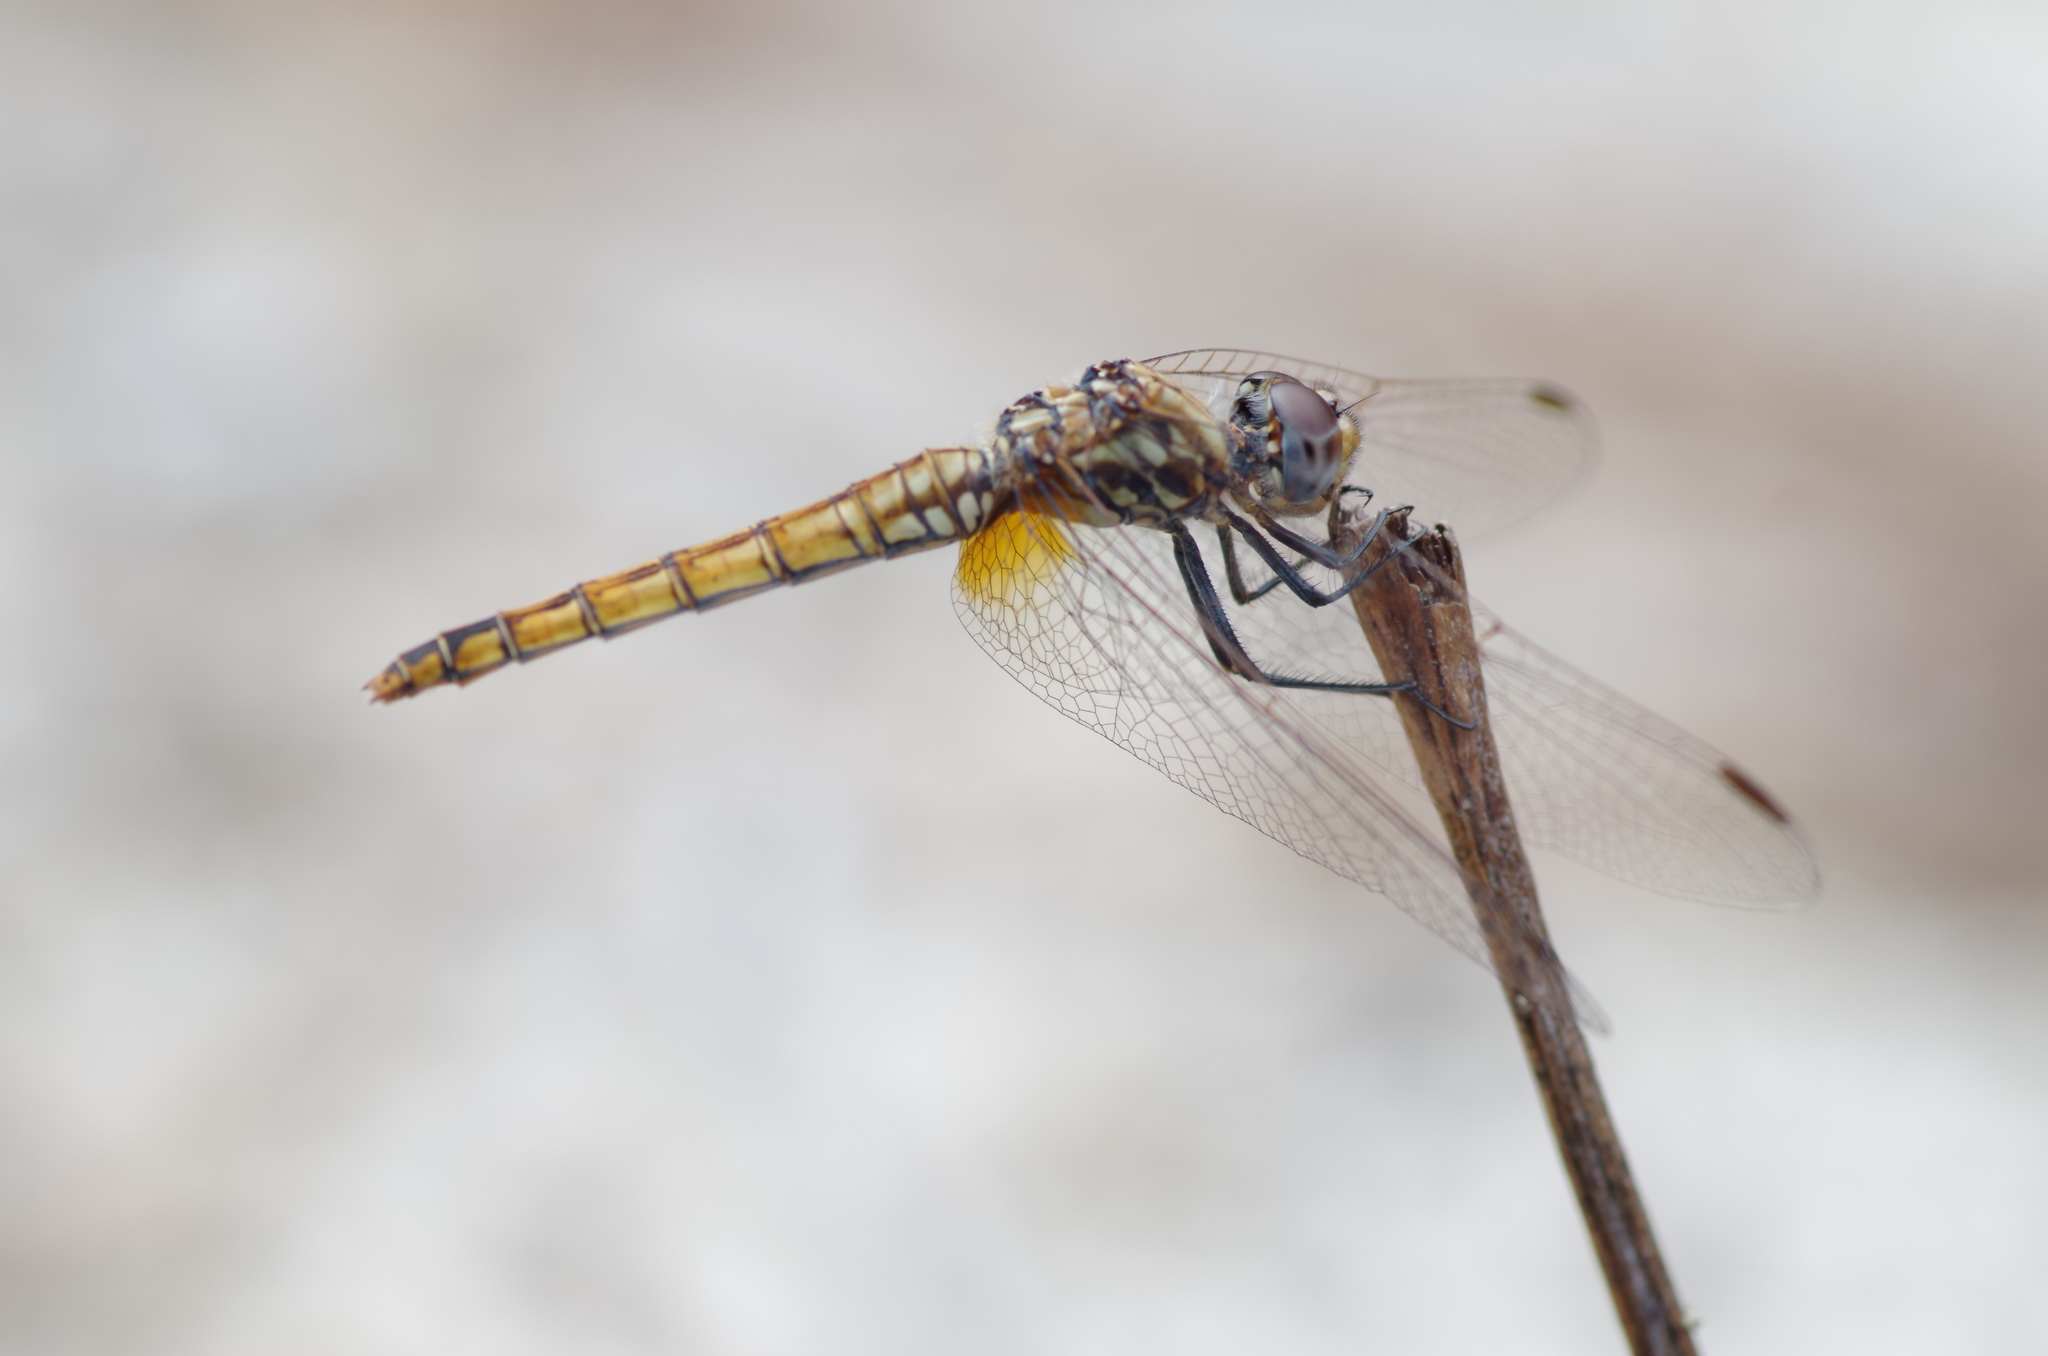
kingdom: Animalia
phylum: Arthropoda
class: Insecta
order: Odonata
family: Libellulidae
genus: Trithemis
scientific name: Trithemis annulata
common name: Violet dropwing
